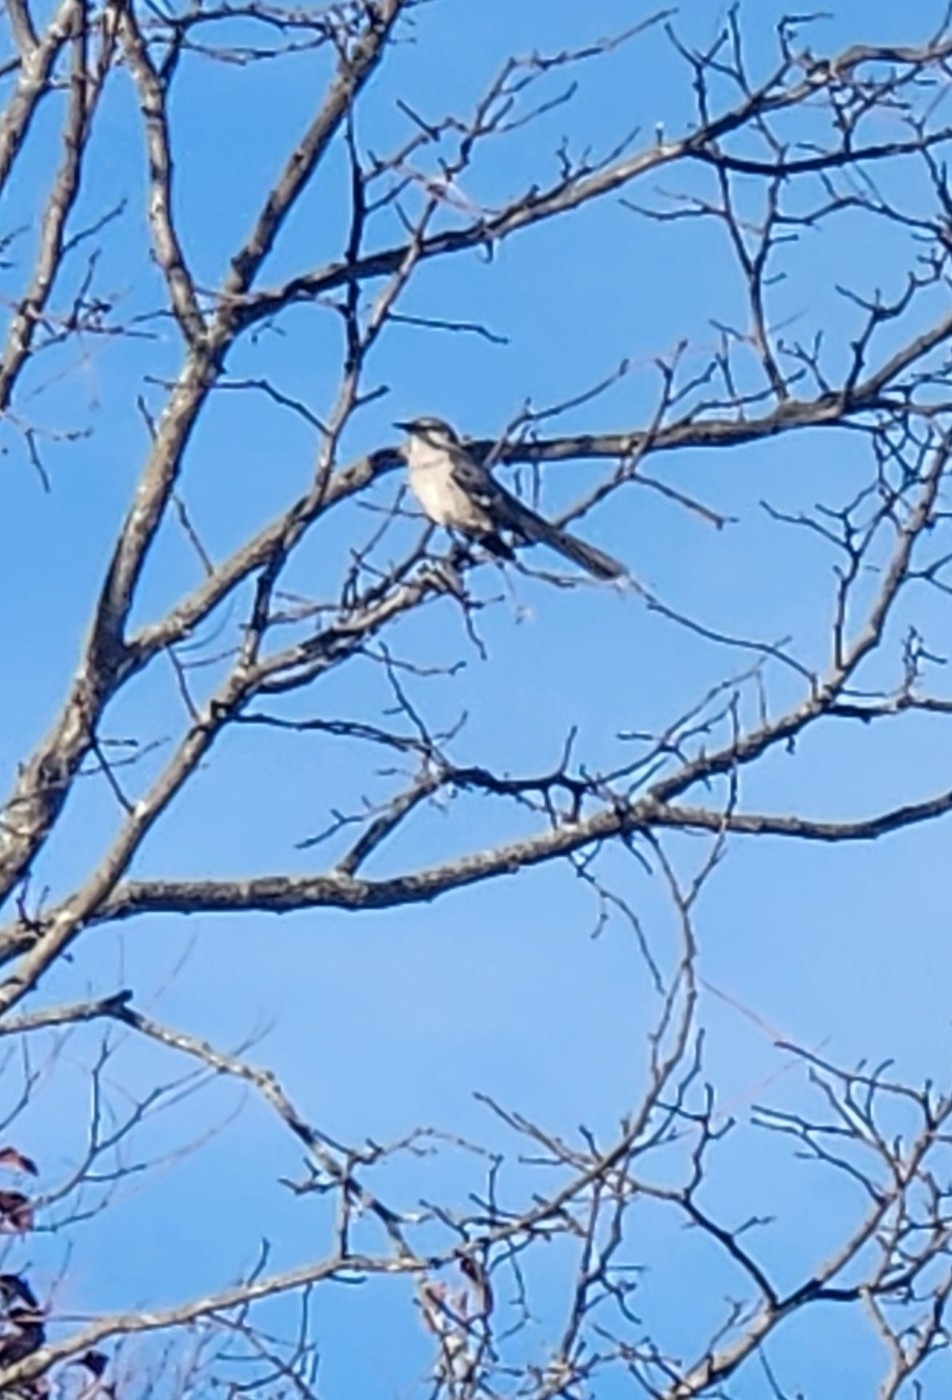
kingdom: Animalia
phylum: Chordata
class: Aves
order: Passeriformes
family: Mimidae
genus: Mimus
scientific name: Mimus polyglottos
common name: Northern mockingbird
